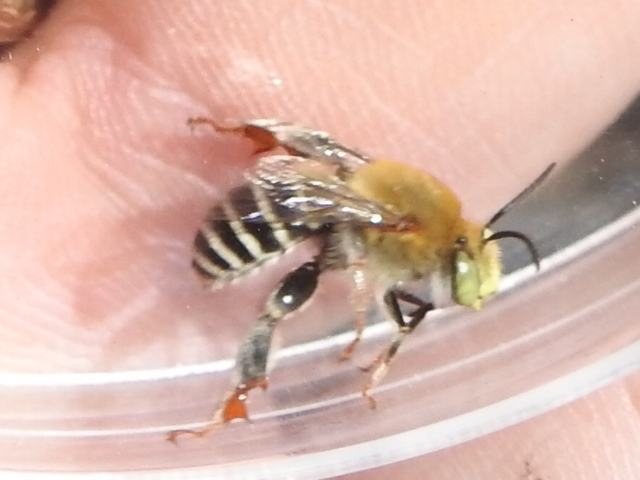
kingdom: Animalia
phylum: Arthropoda
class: Insecta
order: Hymenoptera
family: Apidae
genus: Anthophora
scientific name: Anthophora californica
